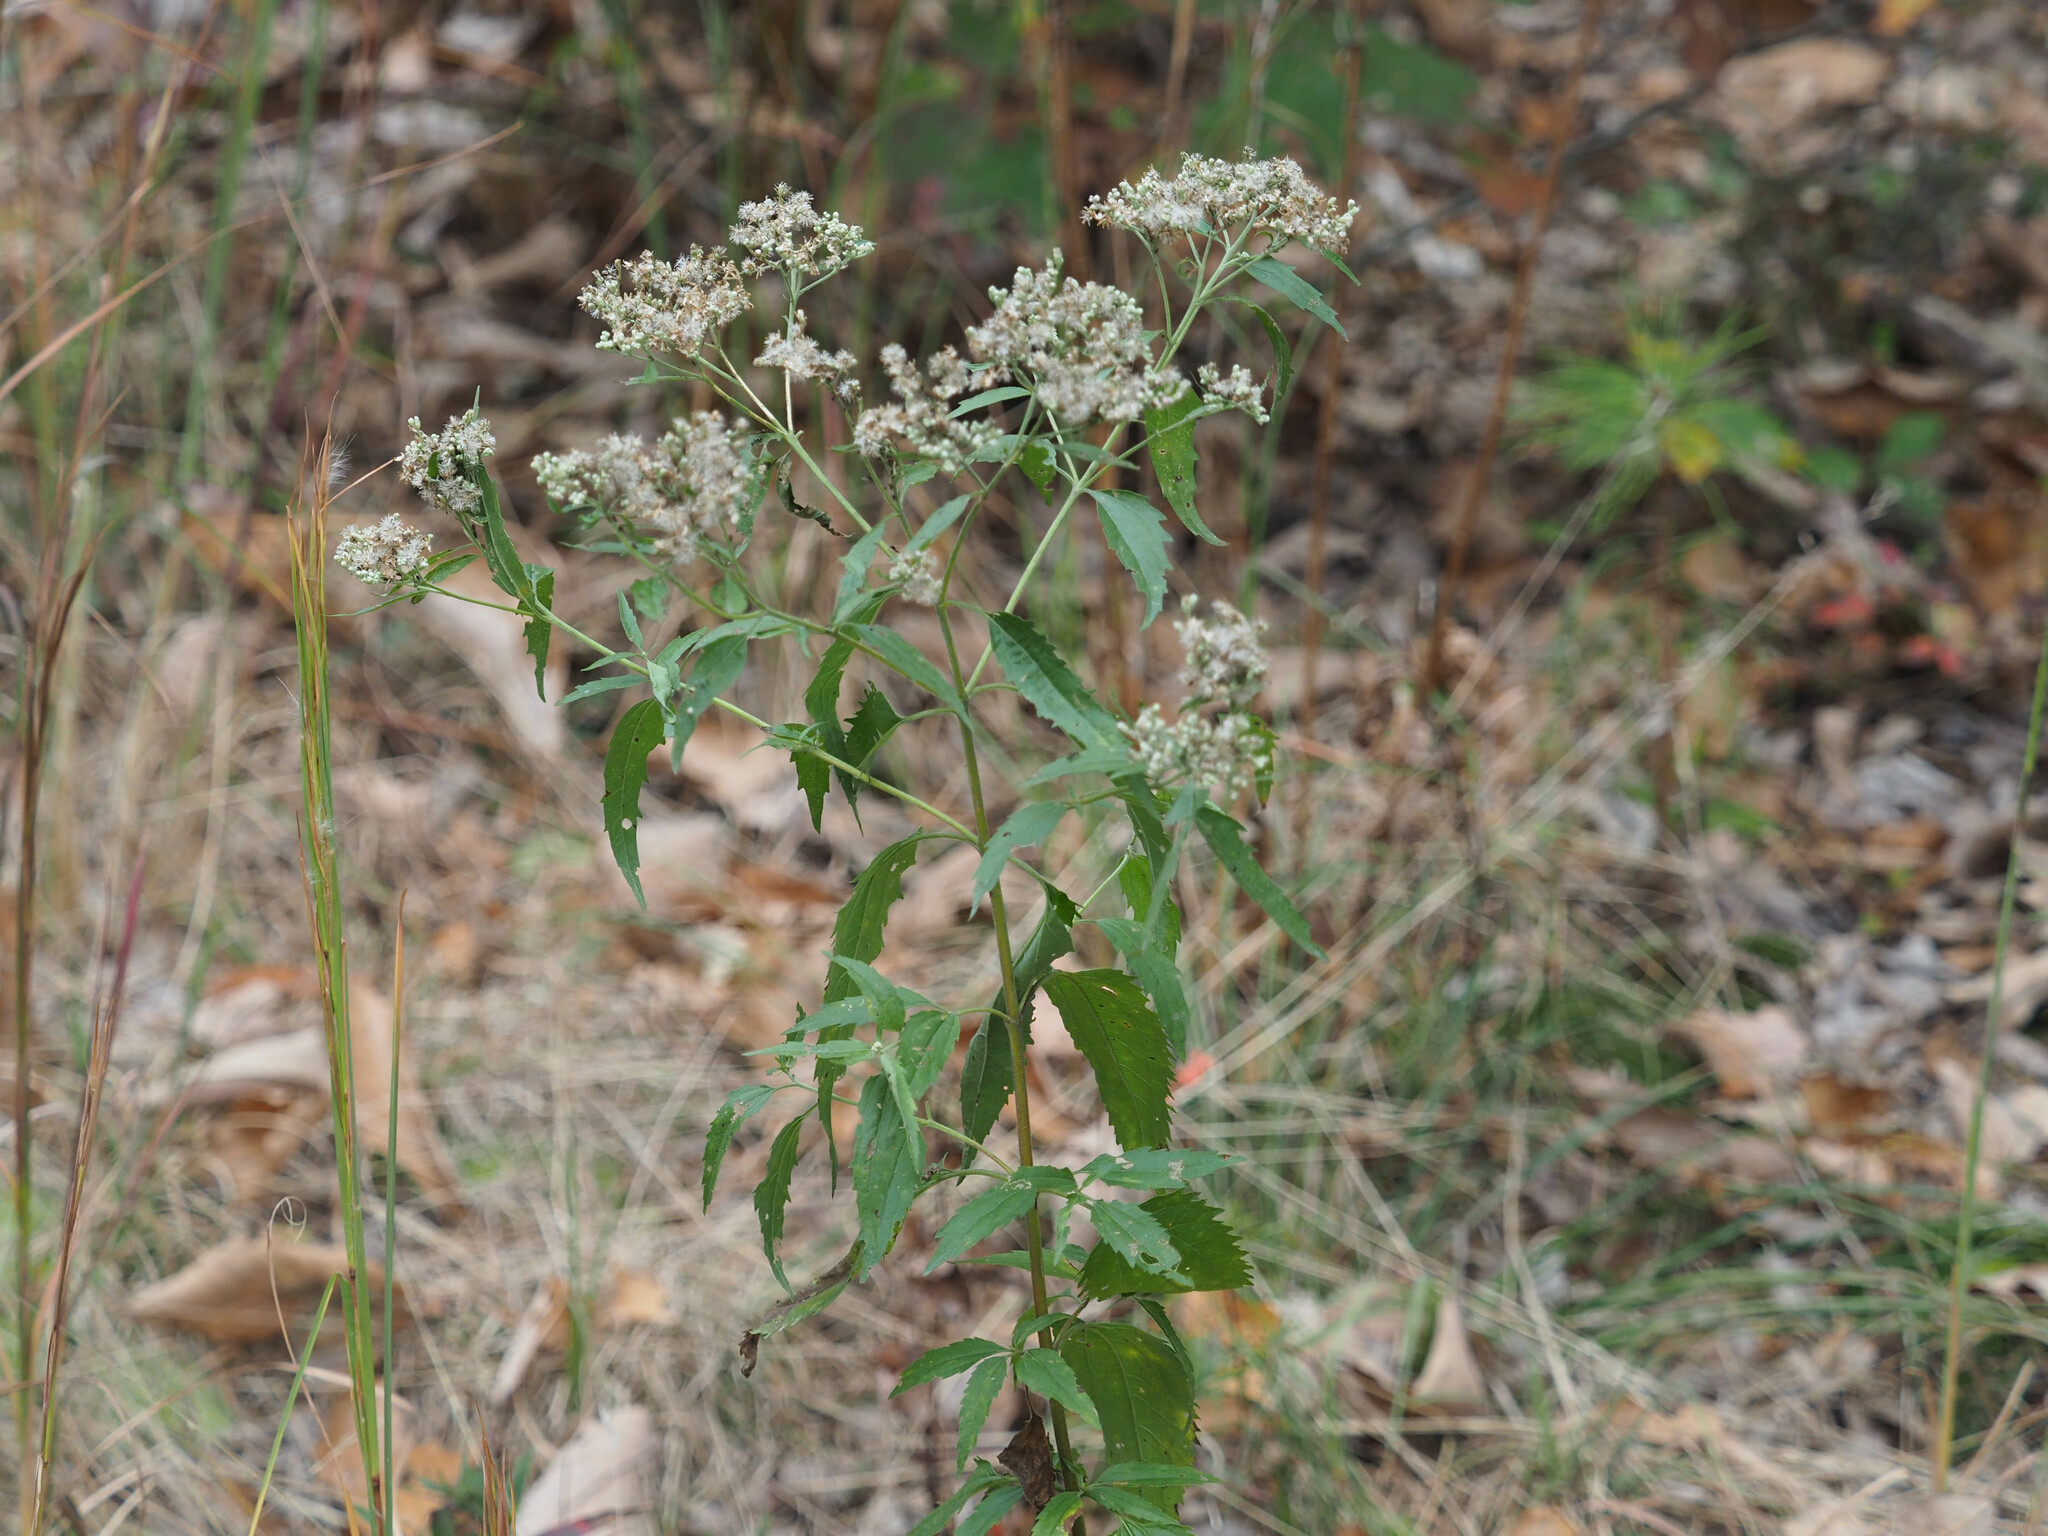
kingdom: Plantae
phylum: Tracheophyta
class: Magnoliopsida
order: Asterales
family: Asteraceae
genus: Eupatorium
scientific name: Eupatorium serotinum
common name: Late boneset
